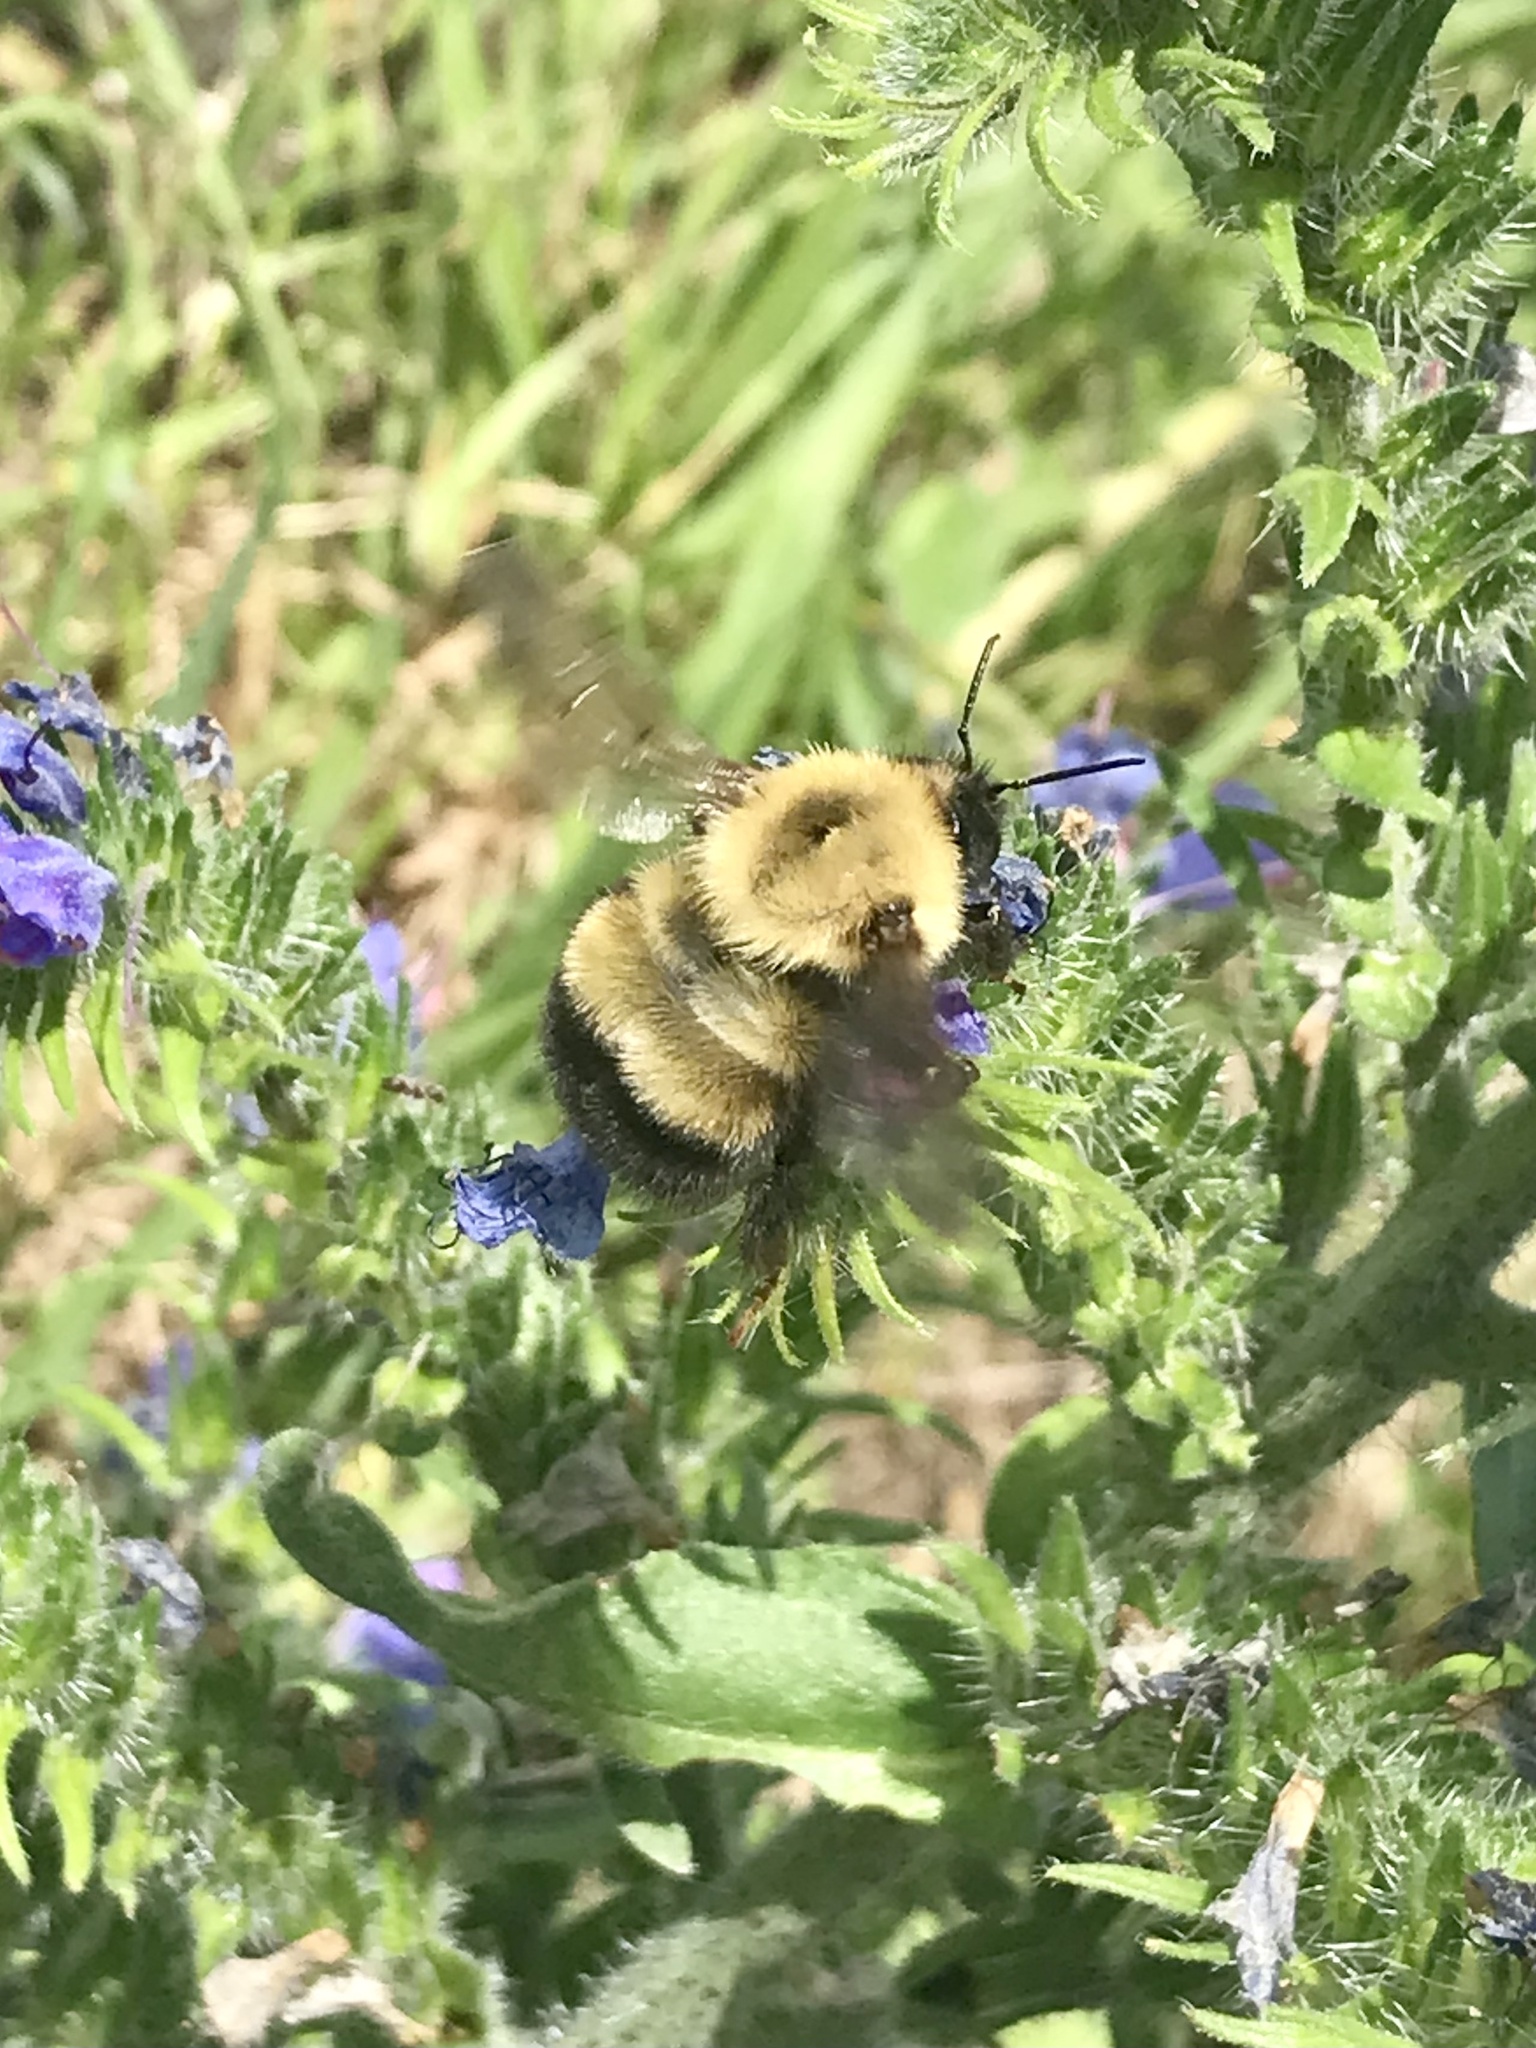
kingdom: Animalia
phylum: Arthropoda
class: Insecta
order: Hymenoptera
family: Apidae
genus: Pyrobombus
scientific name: Pyrobombus
